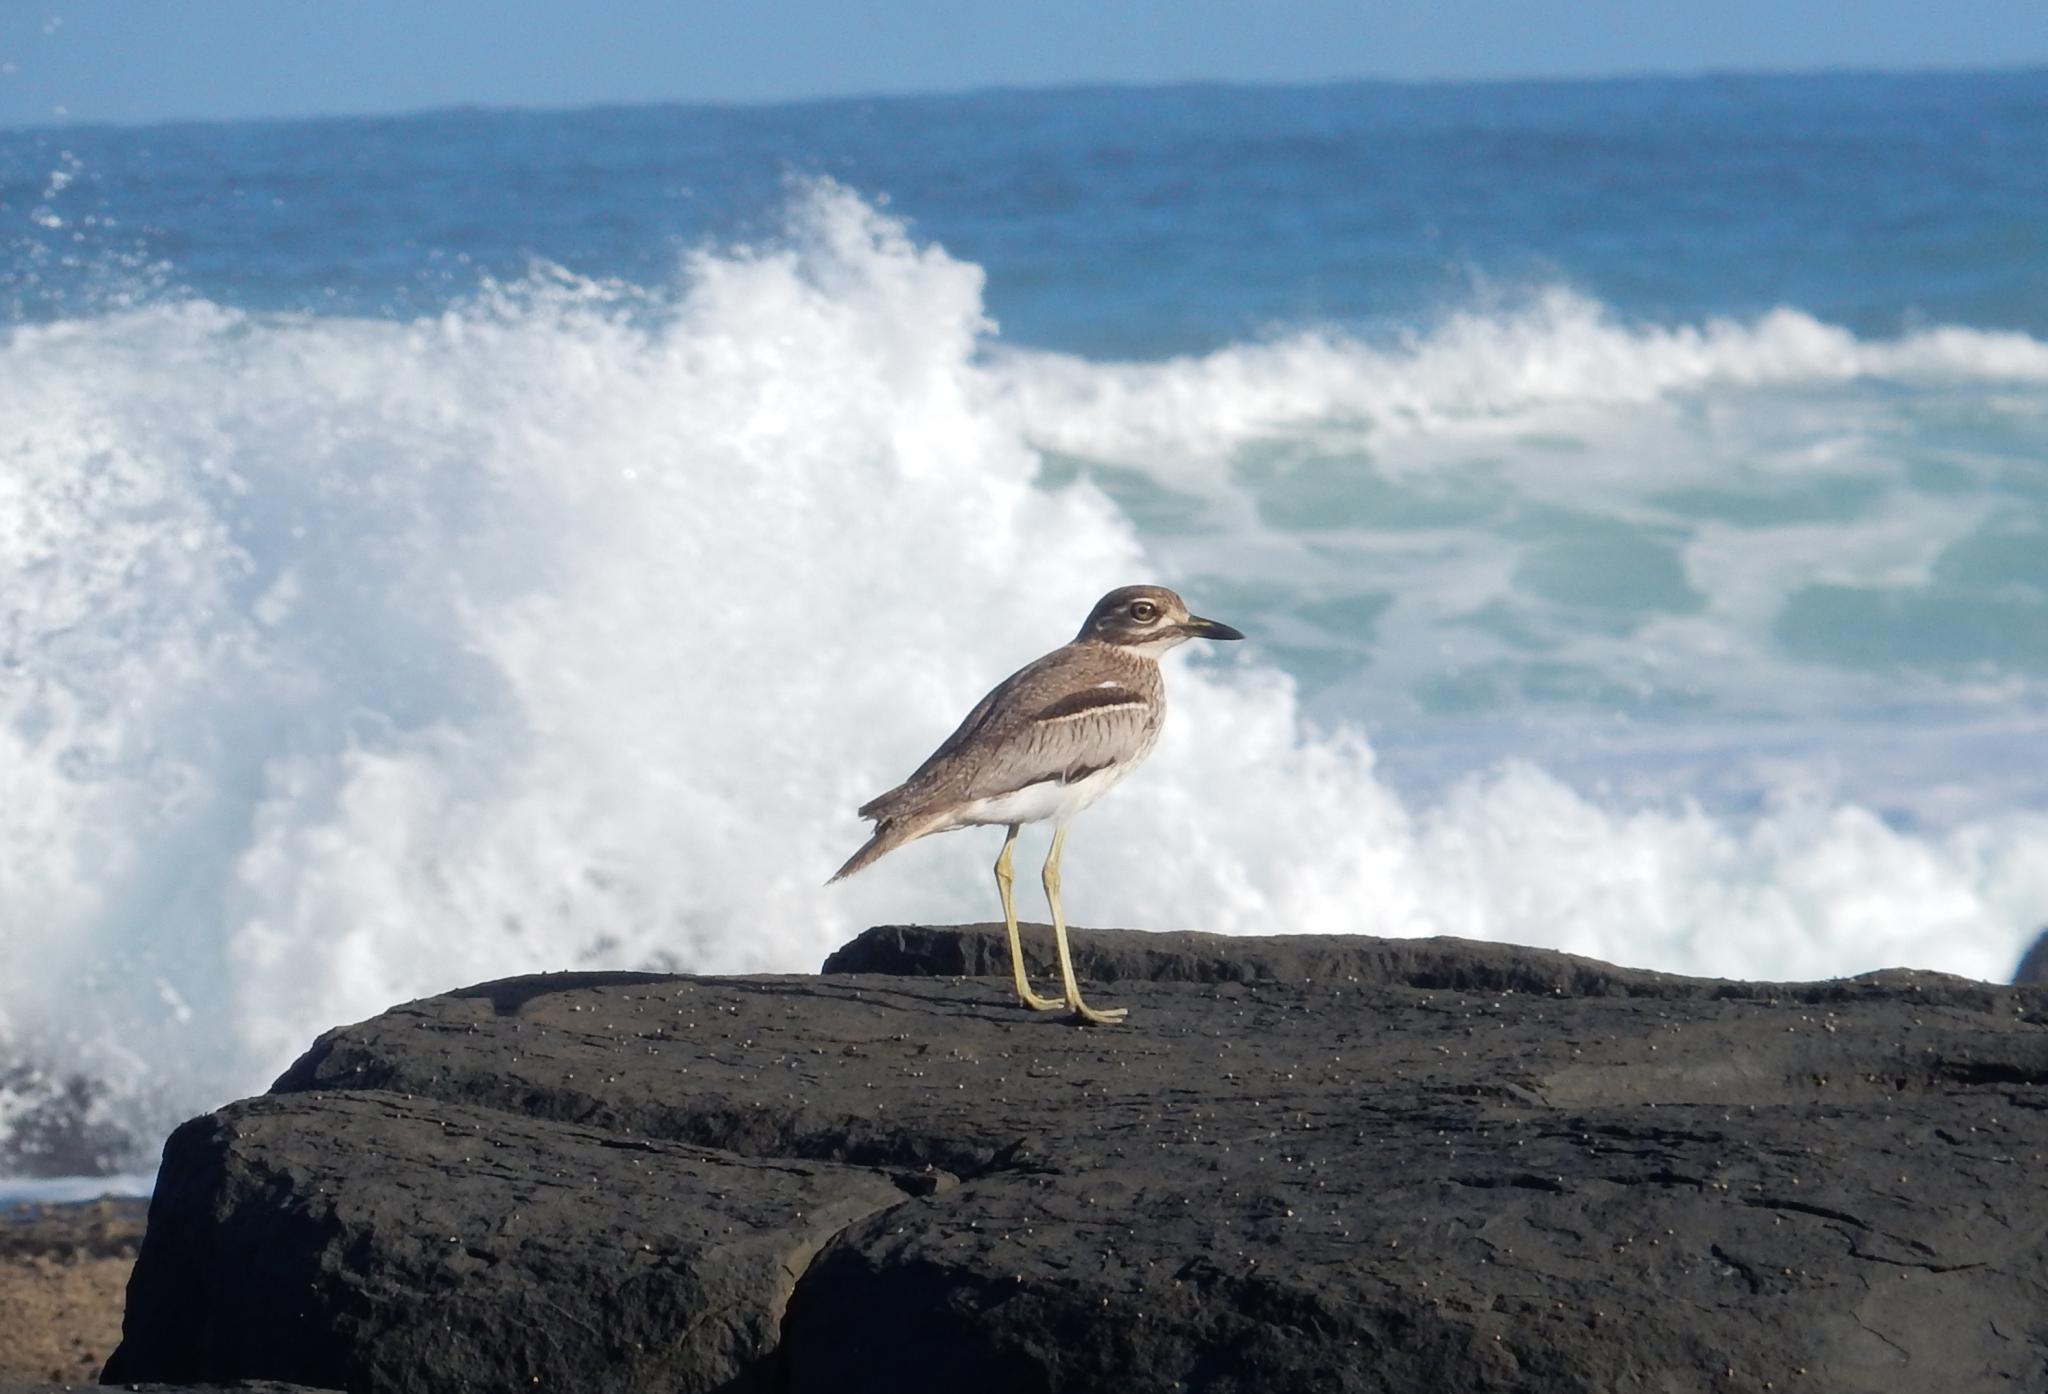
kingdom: Animalia
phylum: Chordata
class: Aves
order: Charadriiformes
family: Burhinidae
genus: Burhinus
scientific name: Burhinus vermiculatus
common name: Water thick-knee
